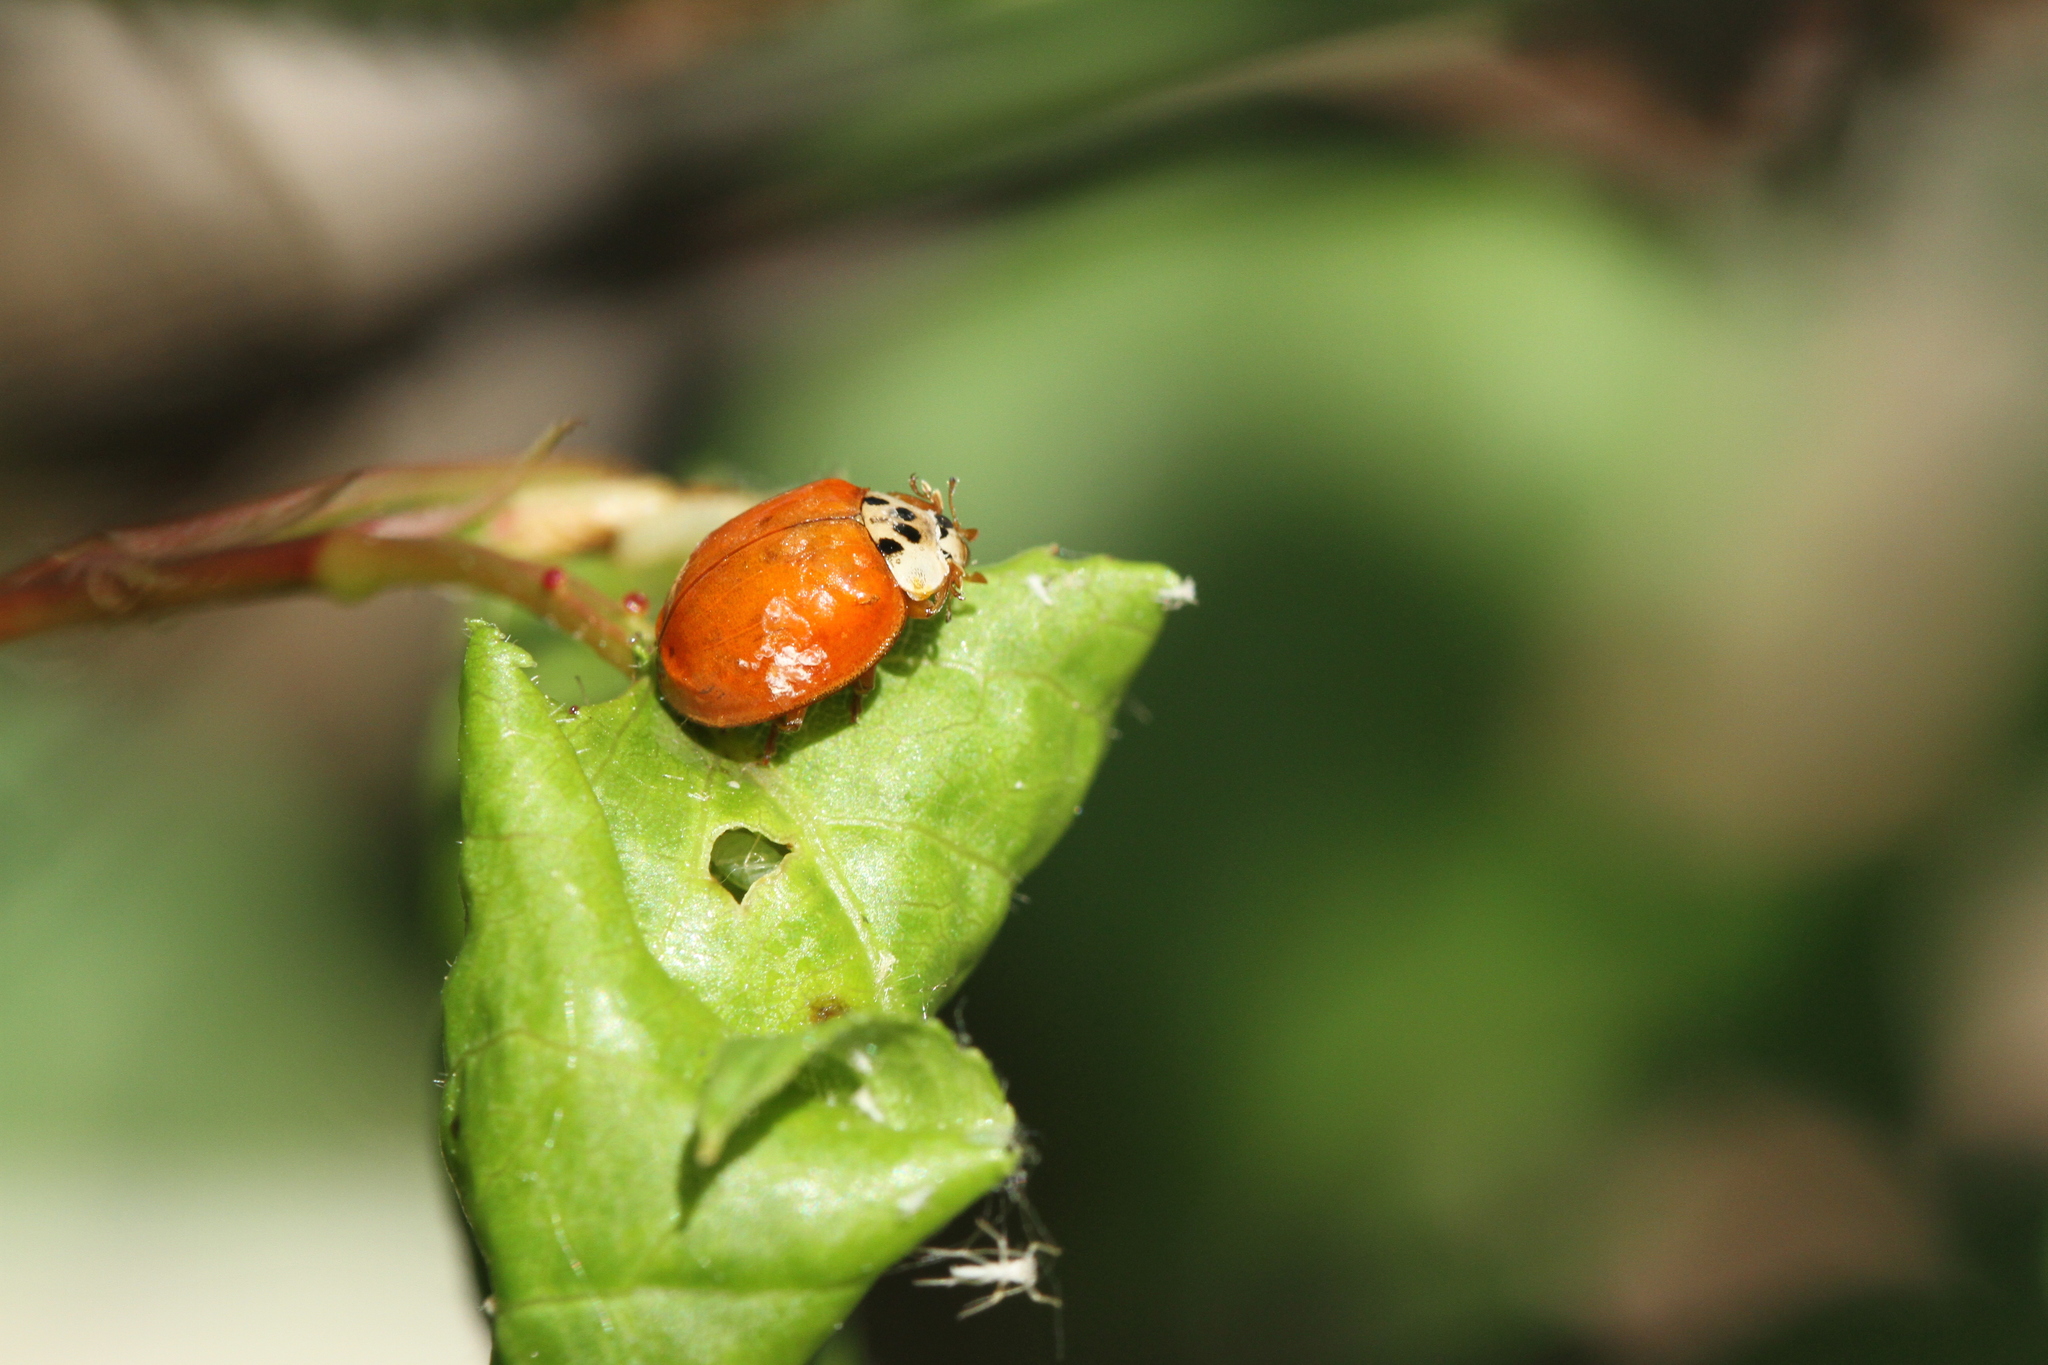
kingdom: Animalia
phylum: Arthropoda
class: Insecta
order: Coleoptera
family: Coccinellidae
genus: Harmonia
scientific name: Harmonia axyridis
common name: Harlequin ladybird
